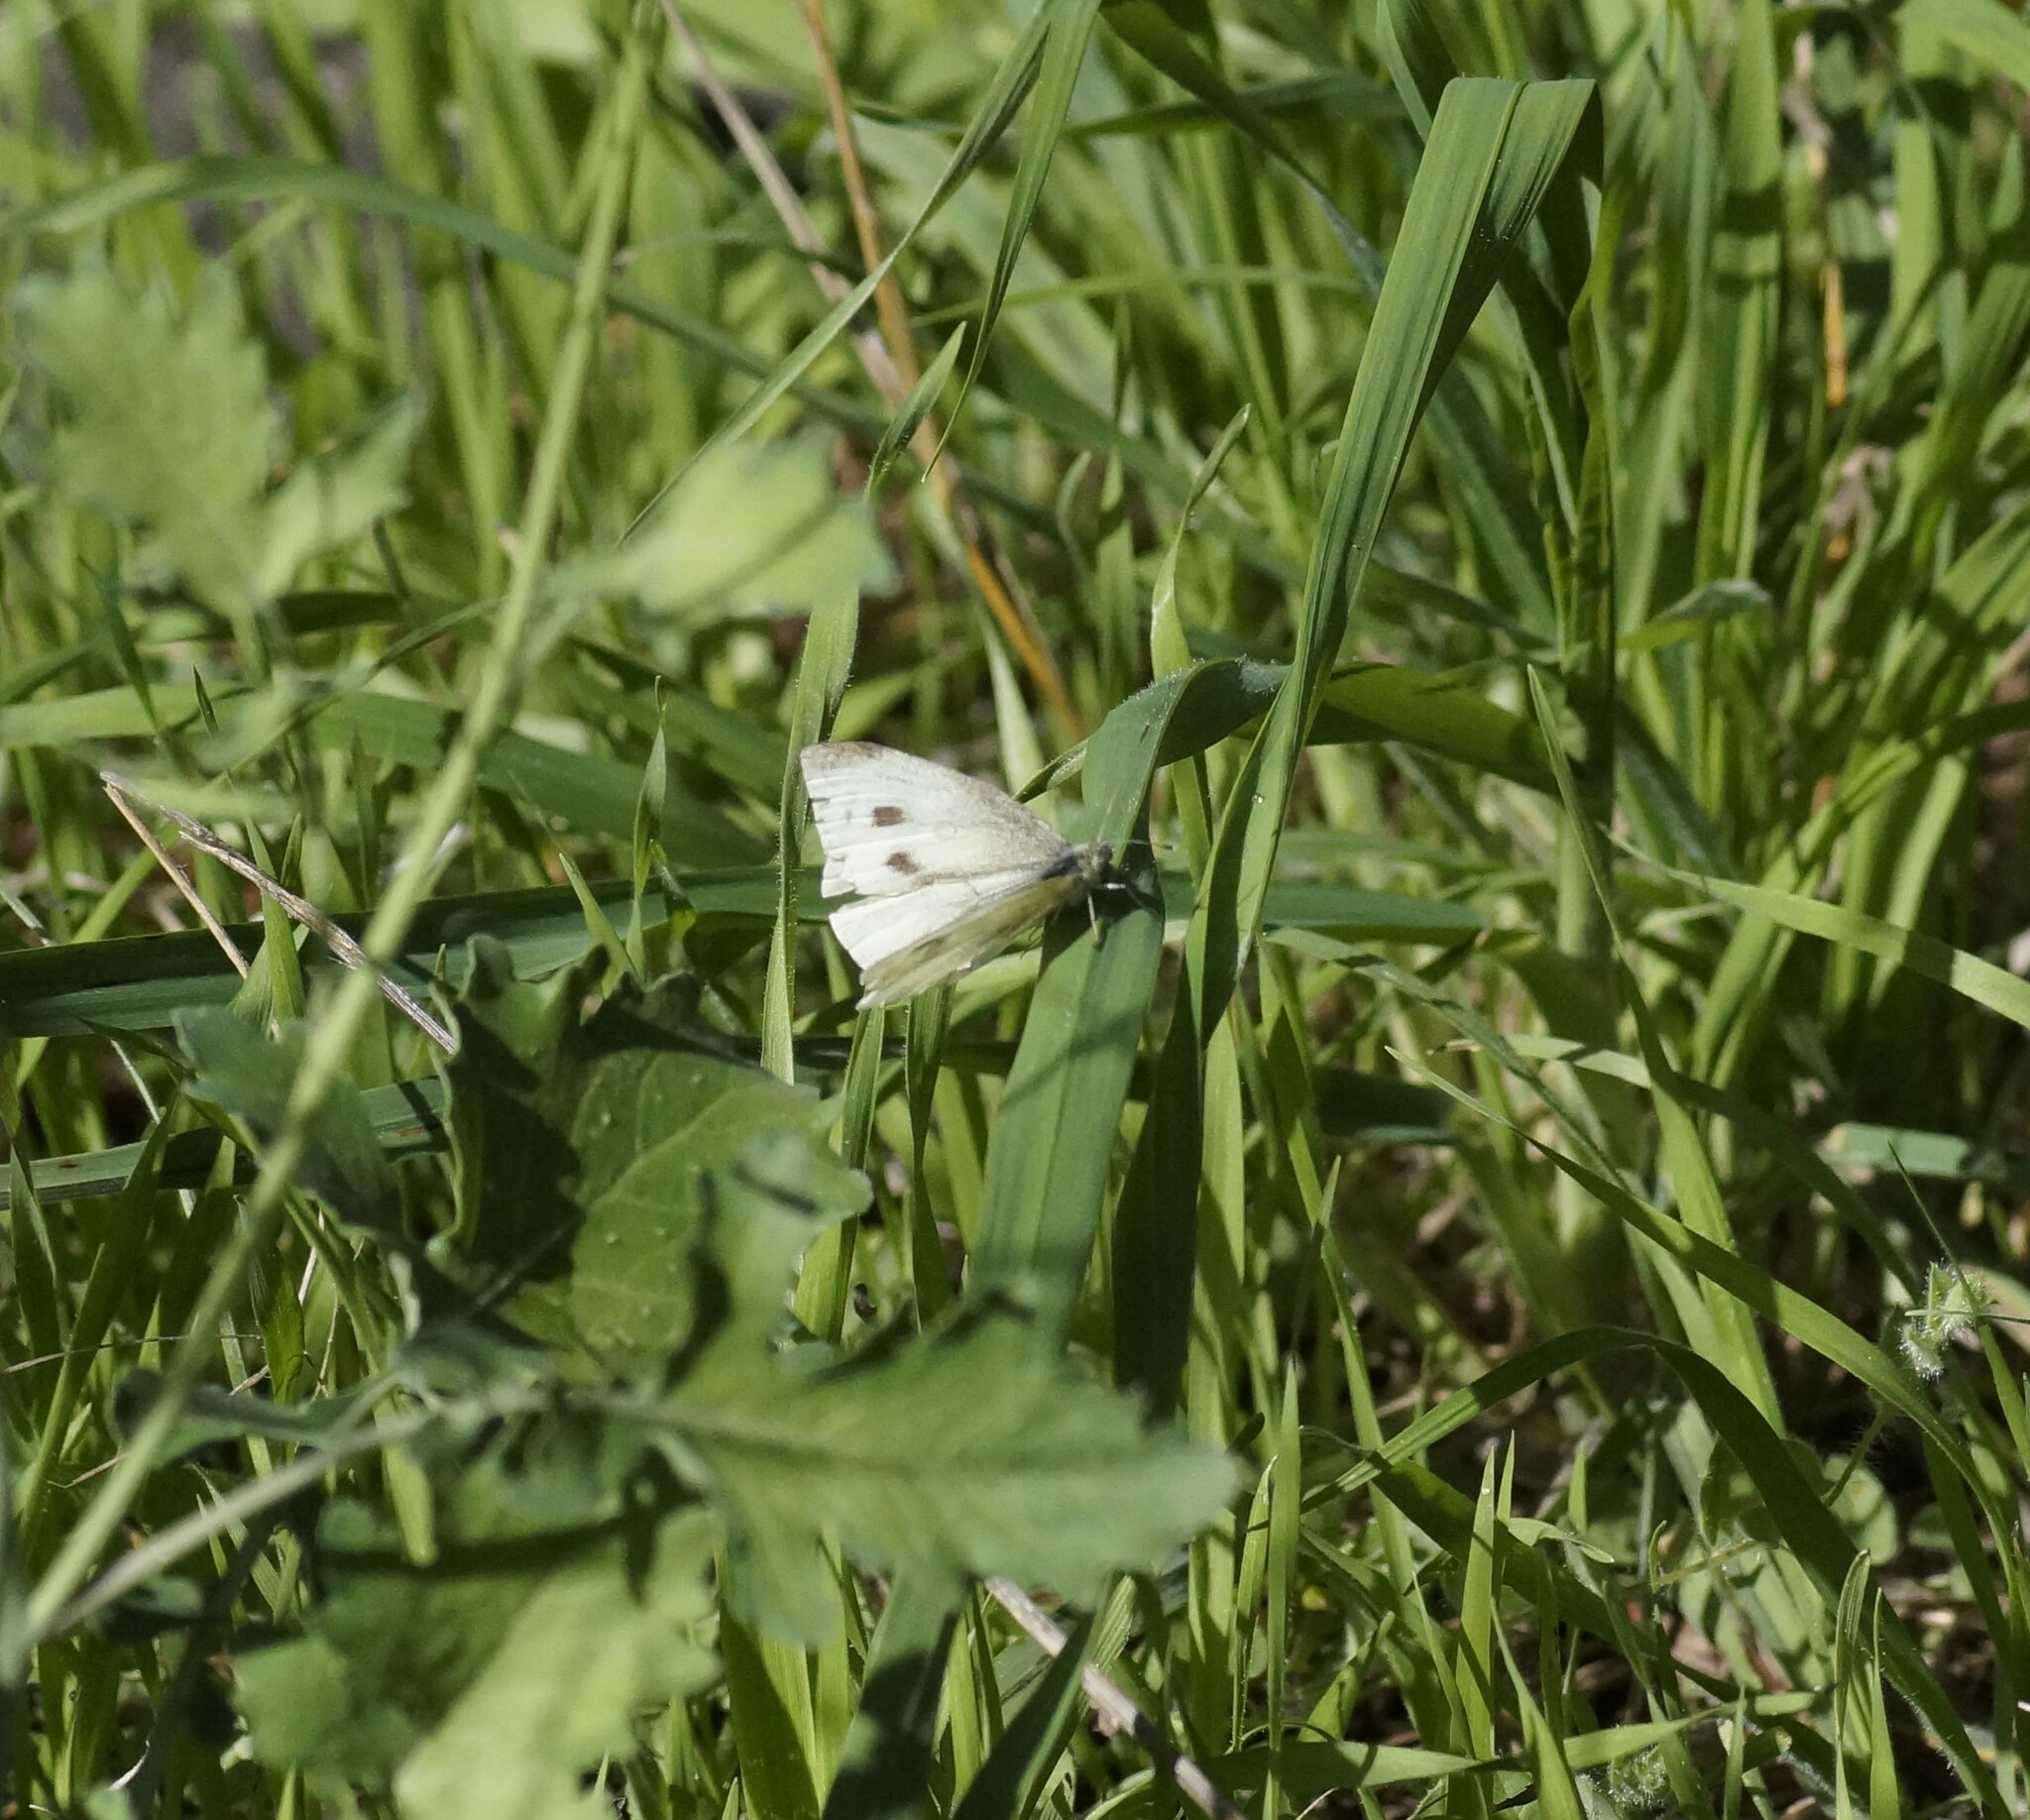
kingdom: Animalia
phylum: Arthropoda
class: Insecta
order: Lepidoptera
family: Pieridae
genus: Pieris
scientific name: Pieris rapae
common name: Small white
